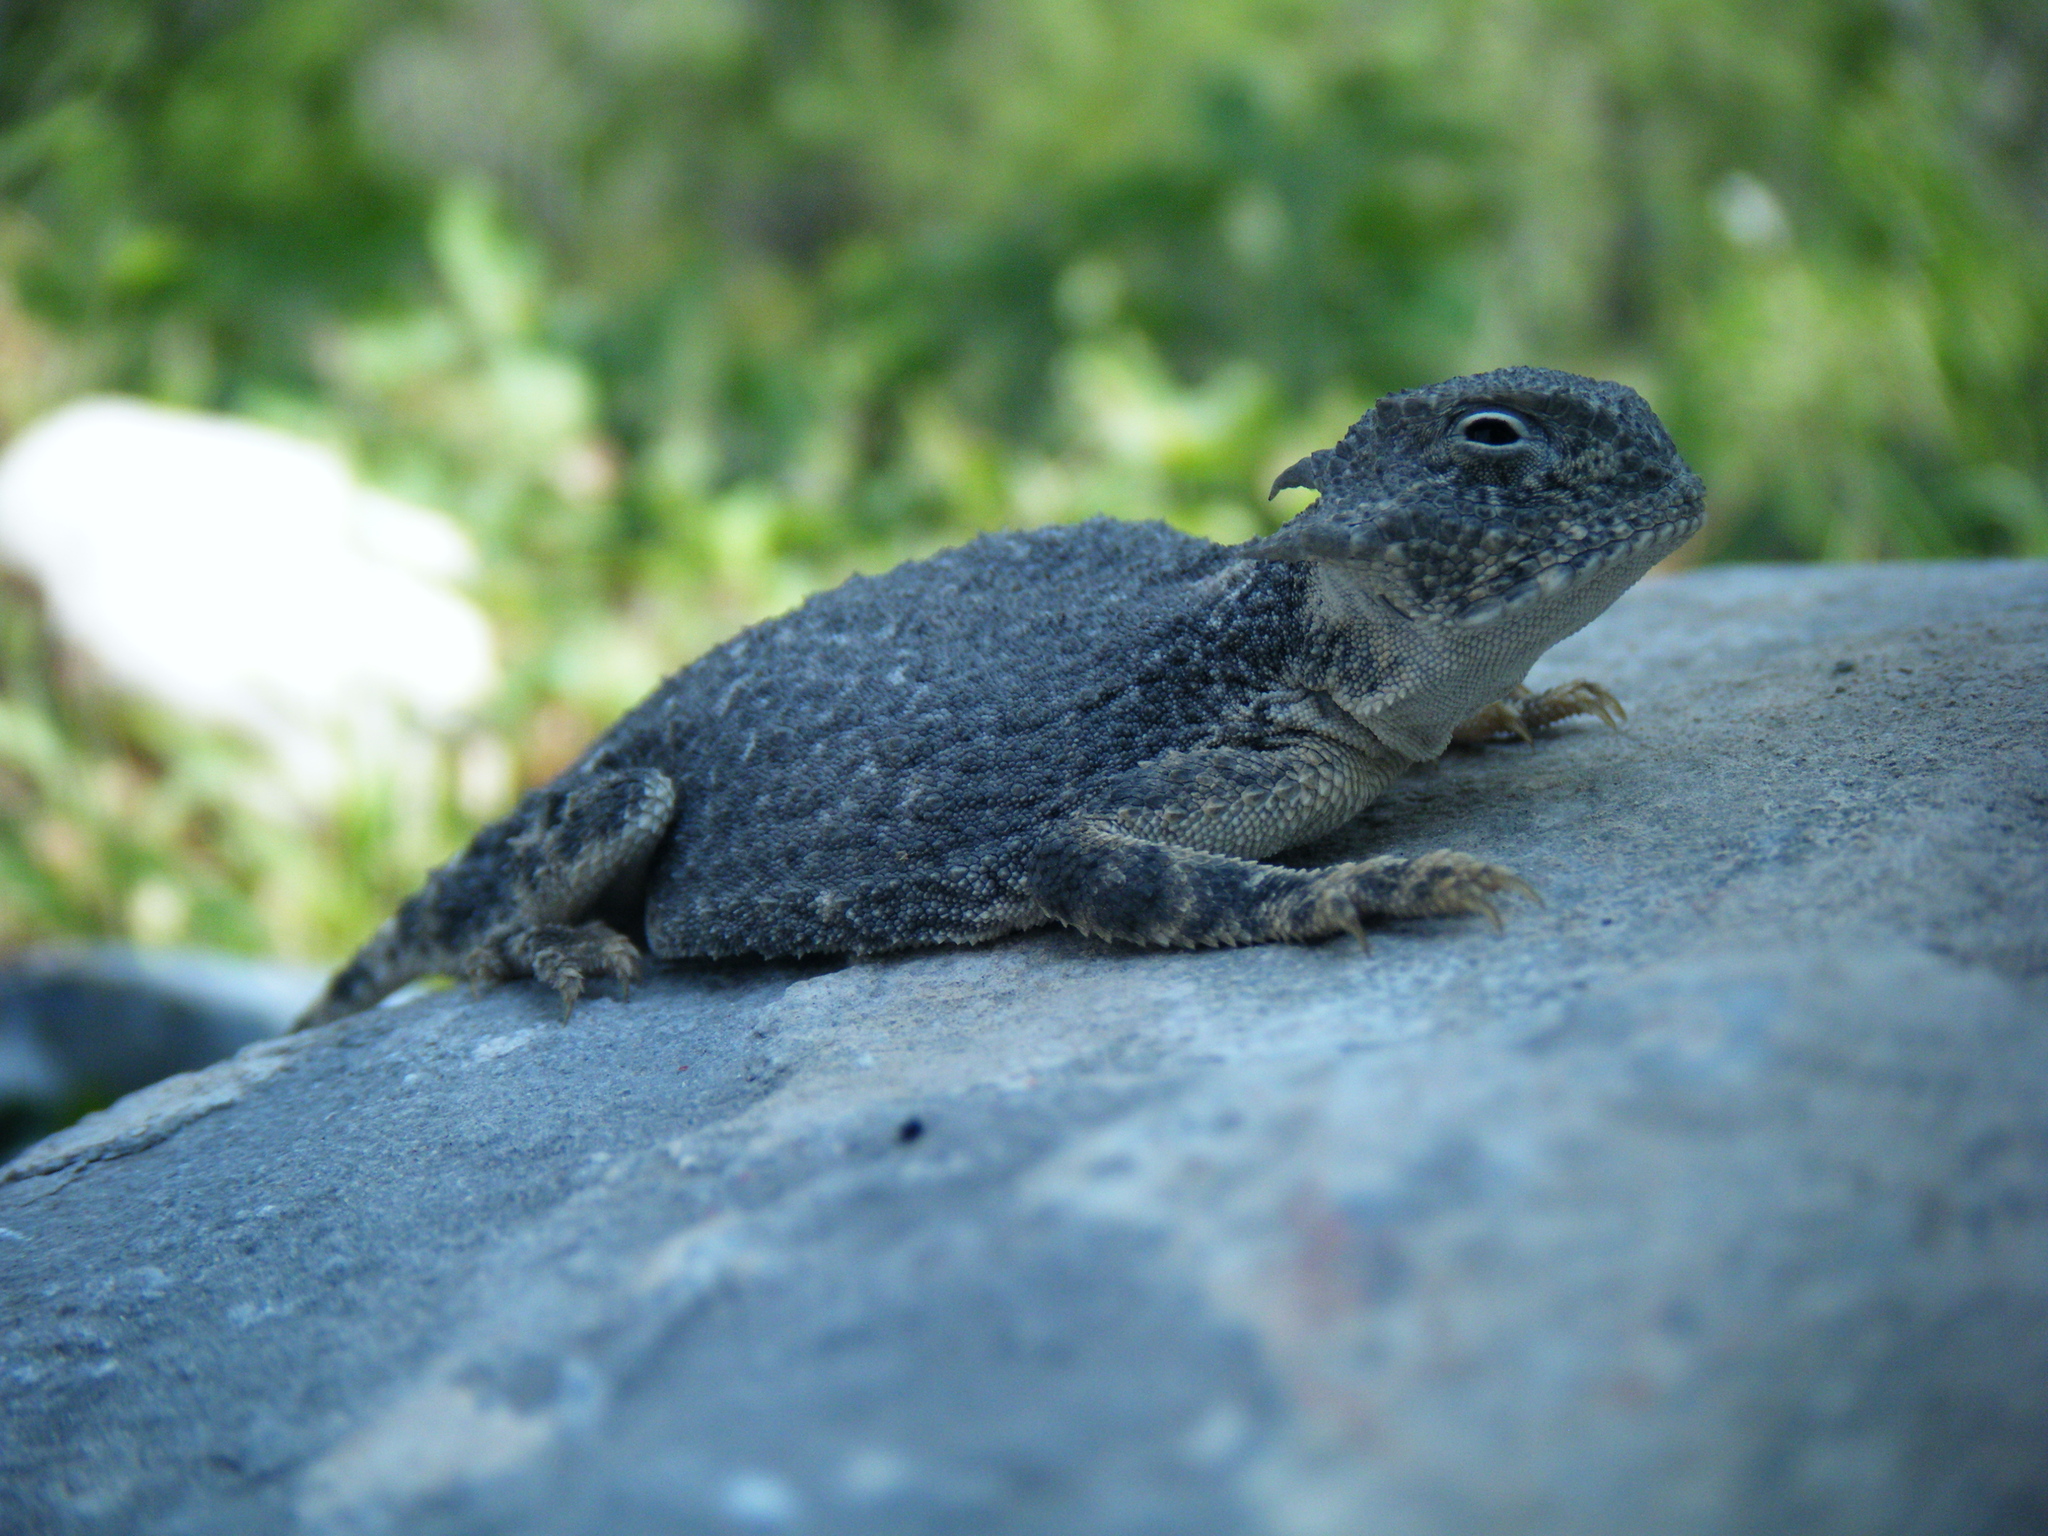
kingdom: Animalia
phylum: Chordata
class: Squamata
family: Phrynosomatidae
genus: Phrynosoma
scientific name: Phrynosoma modestum
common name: Roundtail horned lizard
